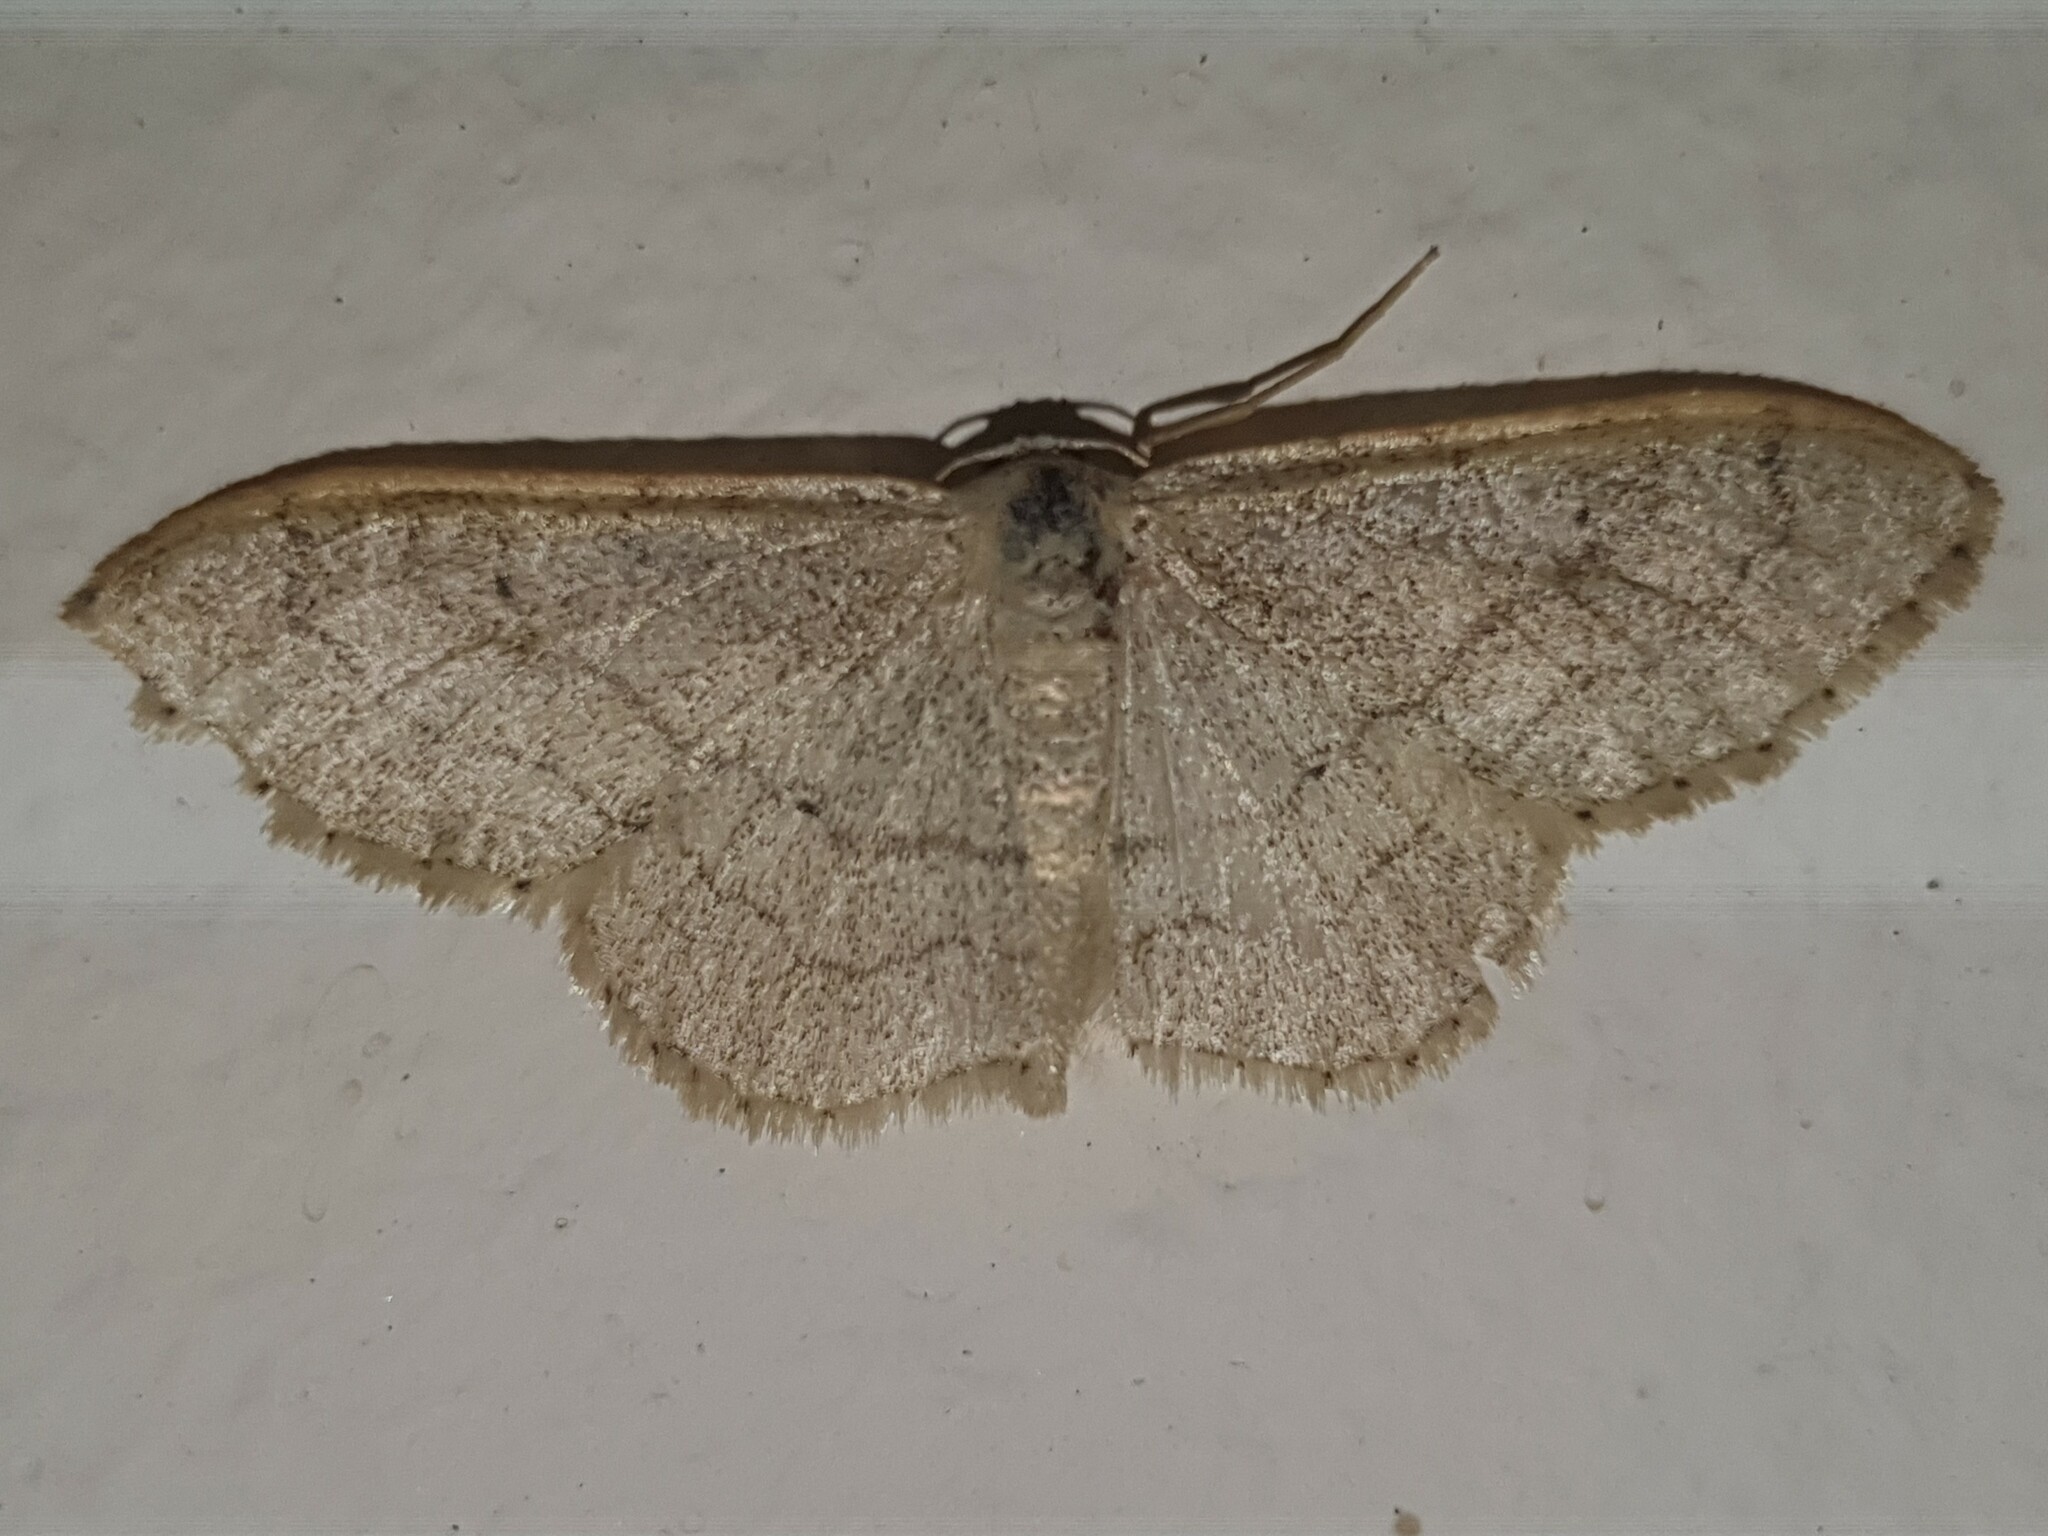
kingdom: Animalia
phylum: Arthropoda
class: Insecta
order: Lepidoptera
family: Geometridae
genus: Idaea
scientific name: Idaea aversata
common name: Riband wave
